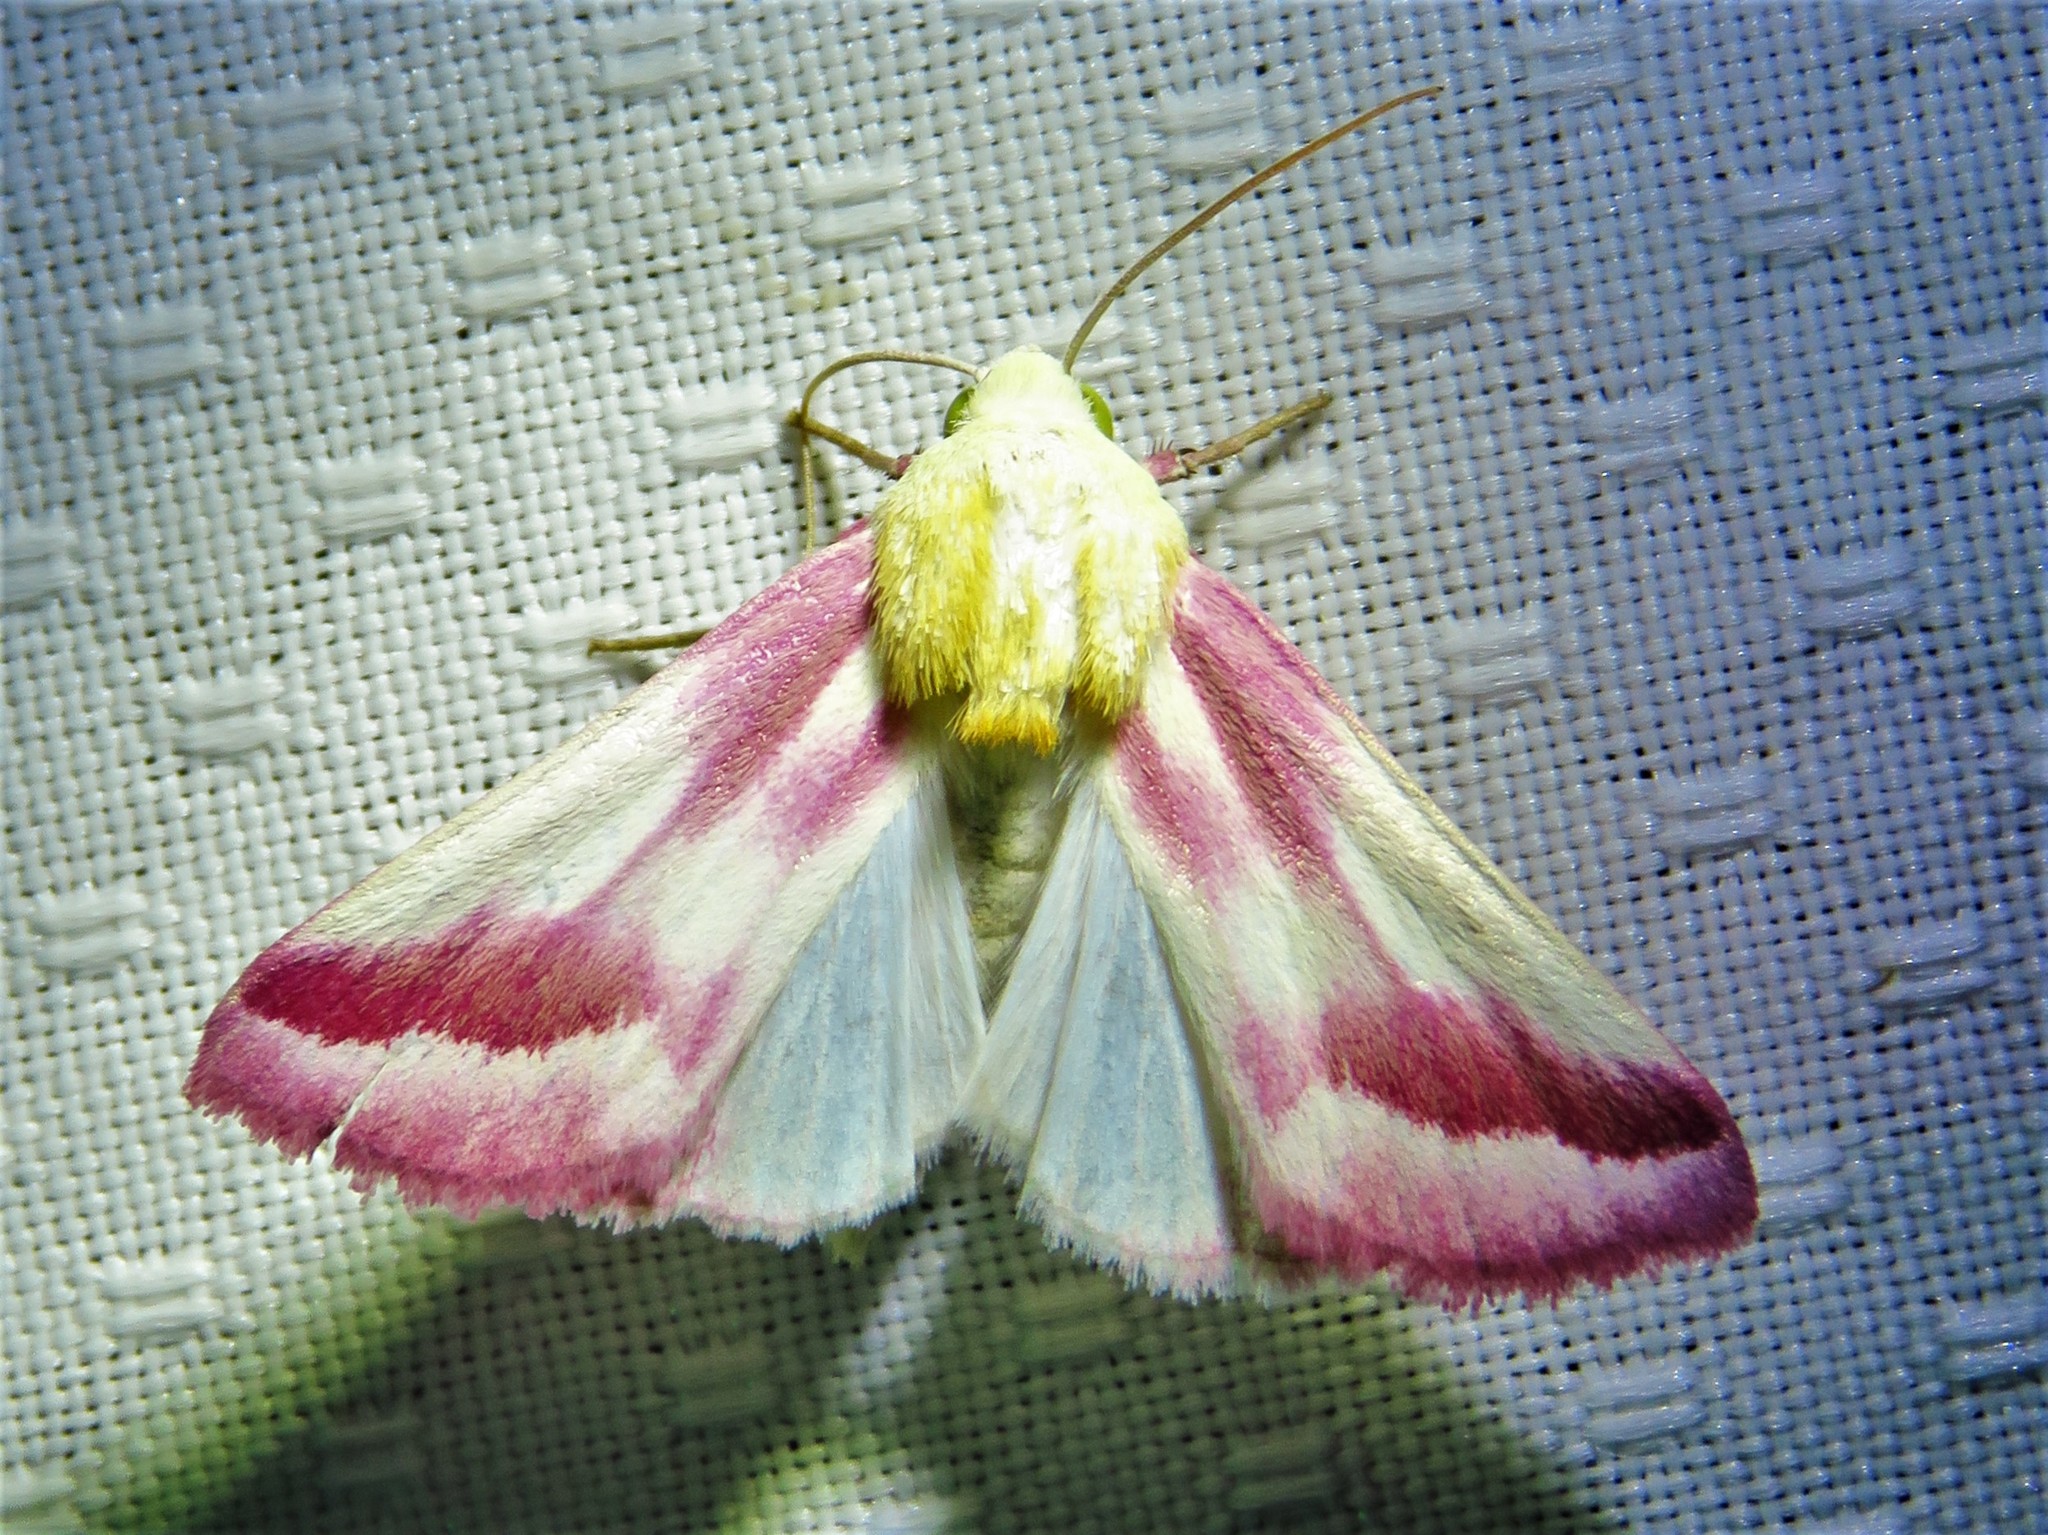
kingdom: Animalia
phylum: Arthropoda
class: Insecta
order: Lepidoptera
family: Noctuidae
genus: Schinia
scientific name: Schinia gaurae
